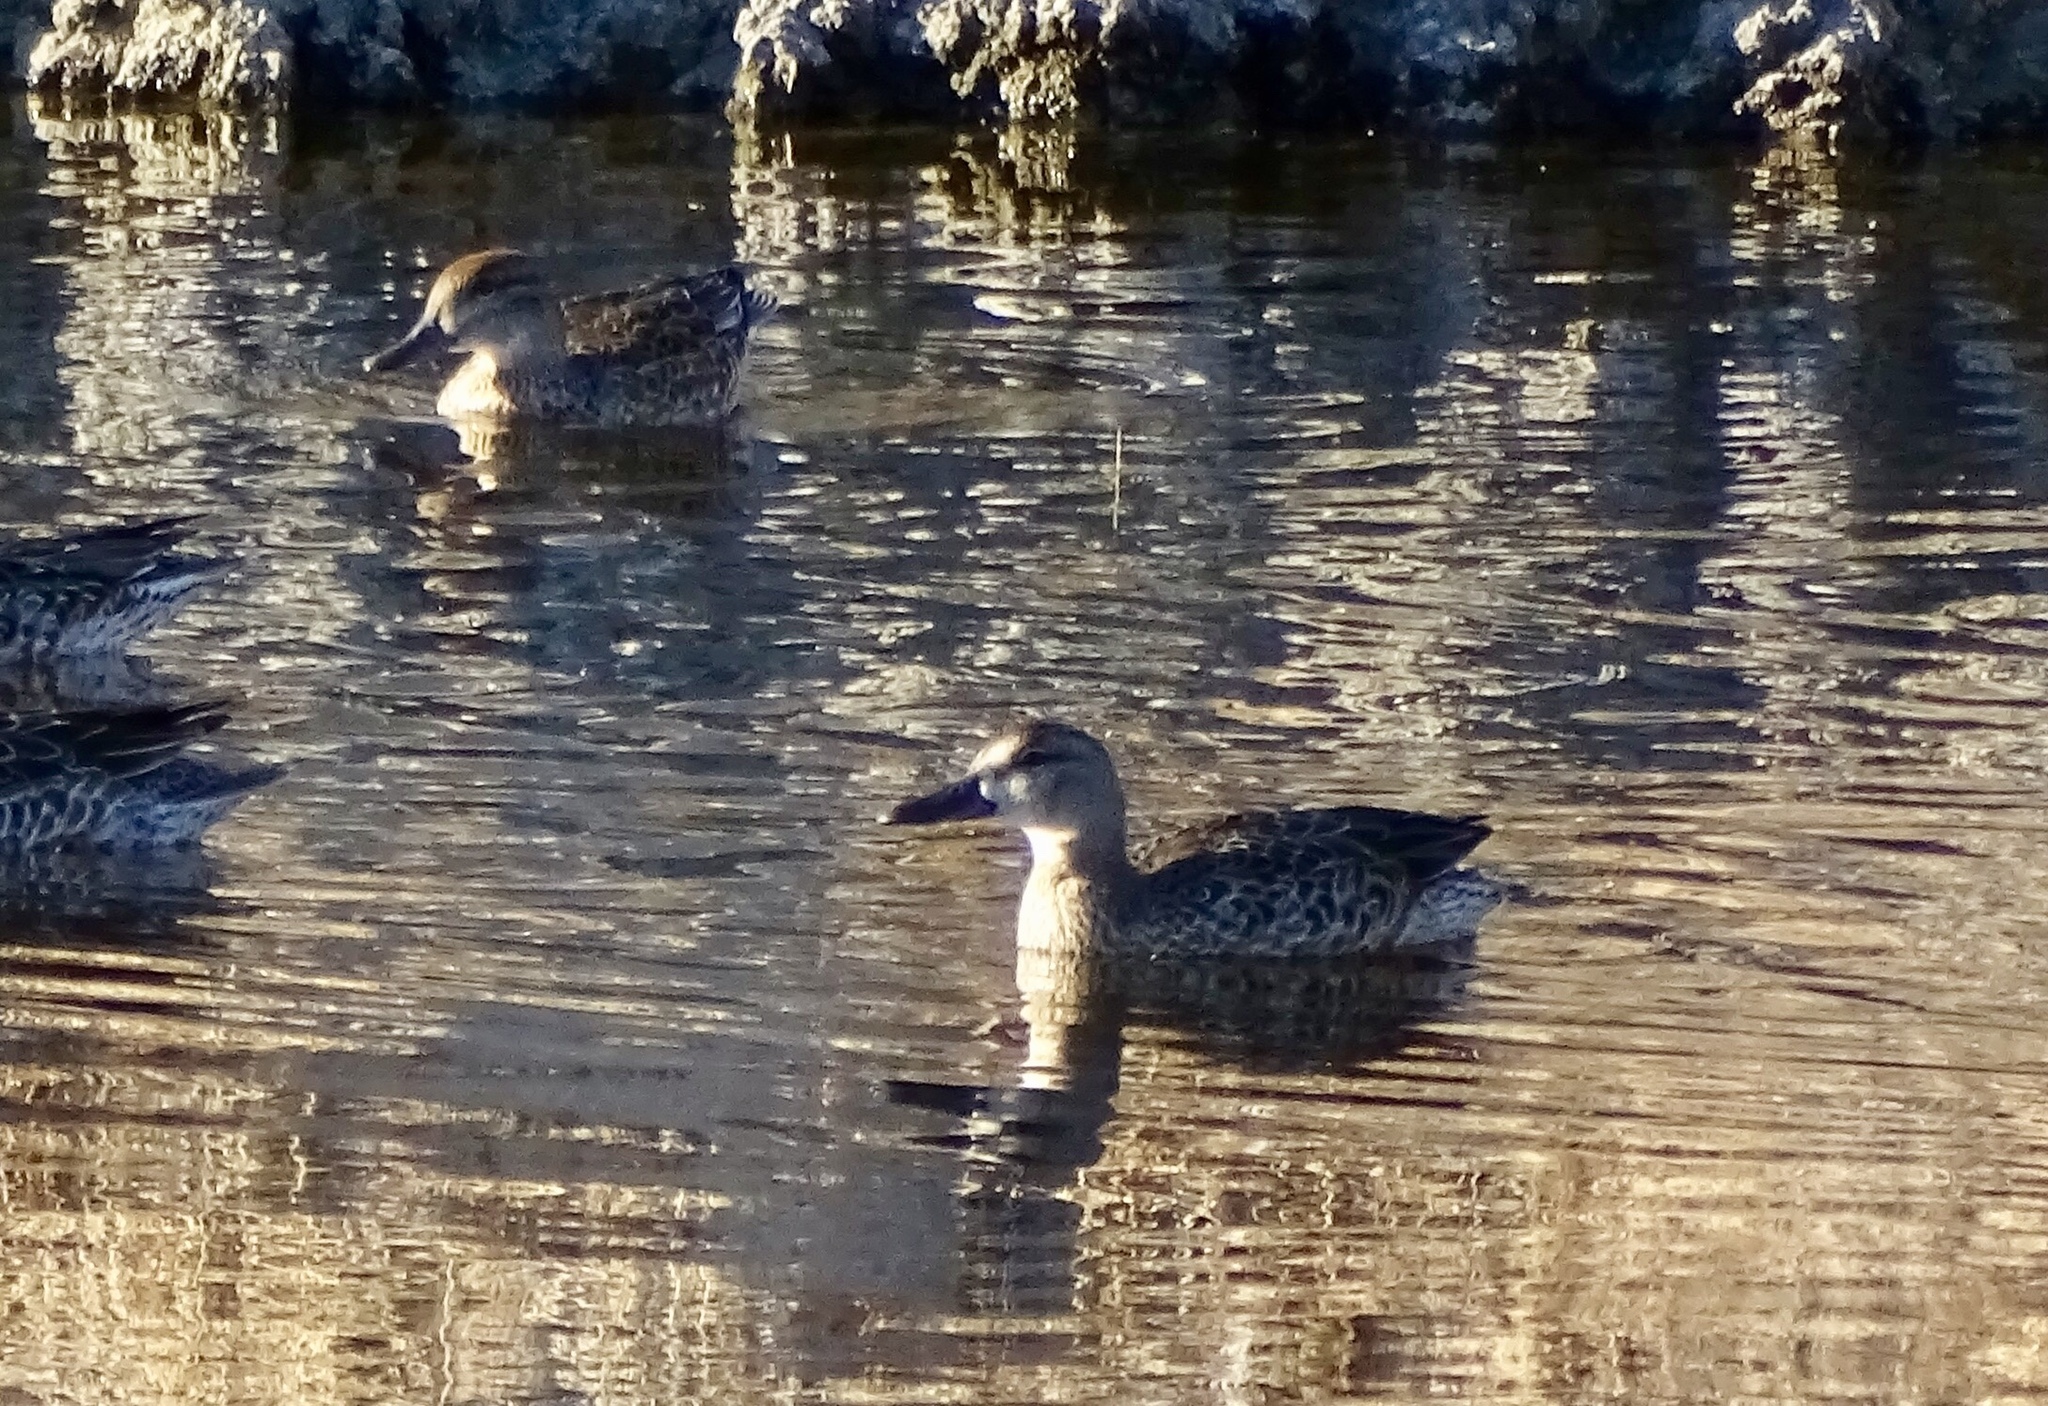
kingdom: Animalia
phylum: Chordata
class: Aves
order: Anseriformes
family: Anatidae
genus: Anas
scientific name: Anas crecca
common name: Eurasian teal
